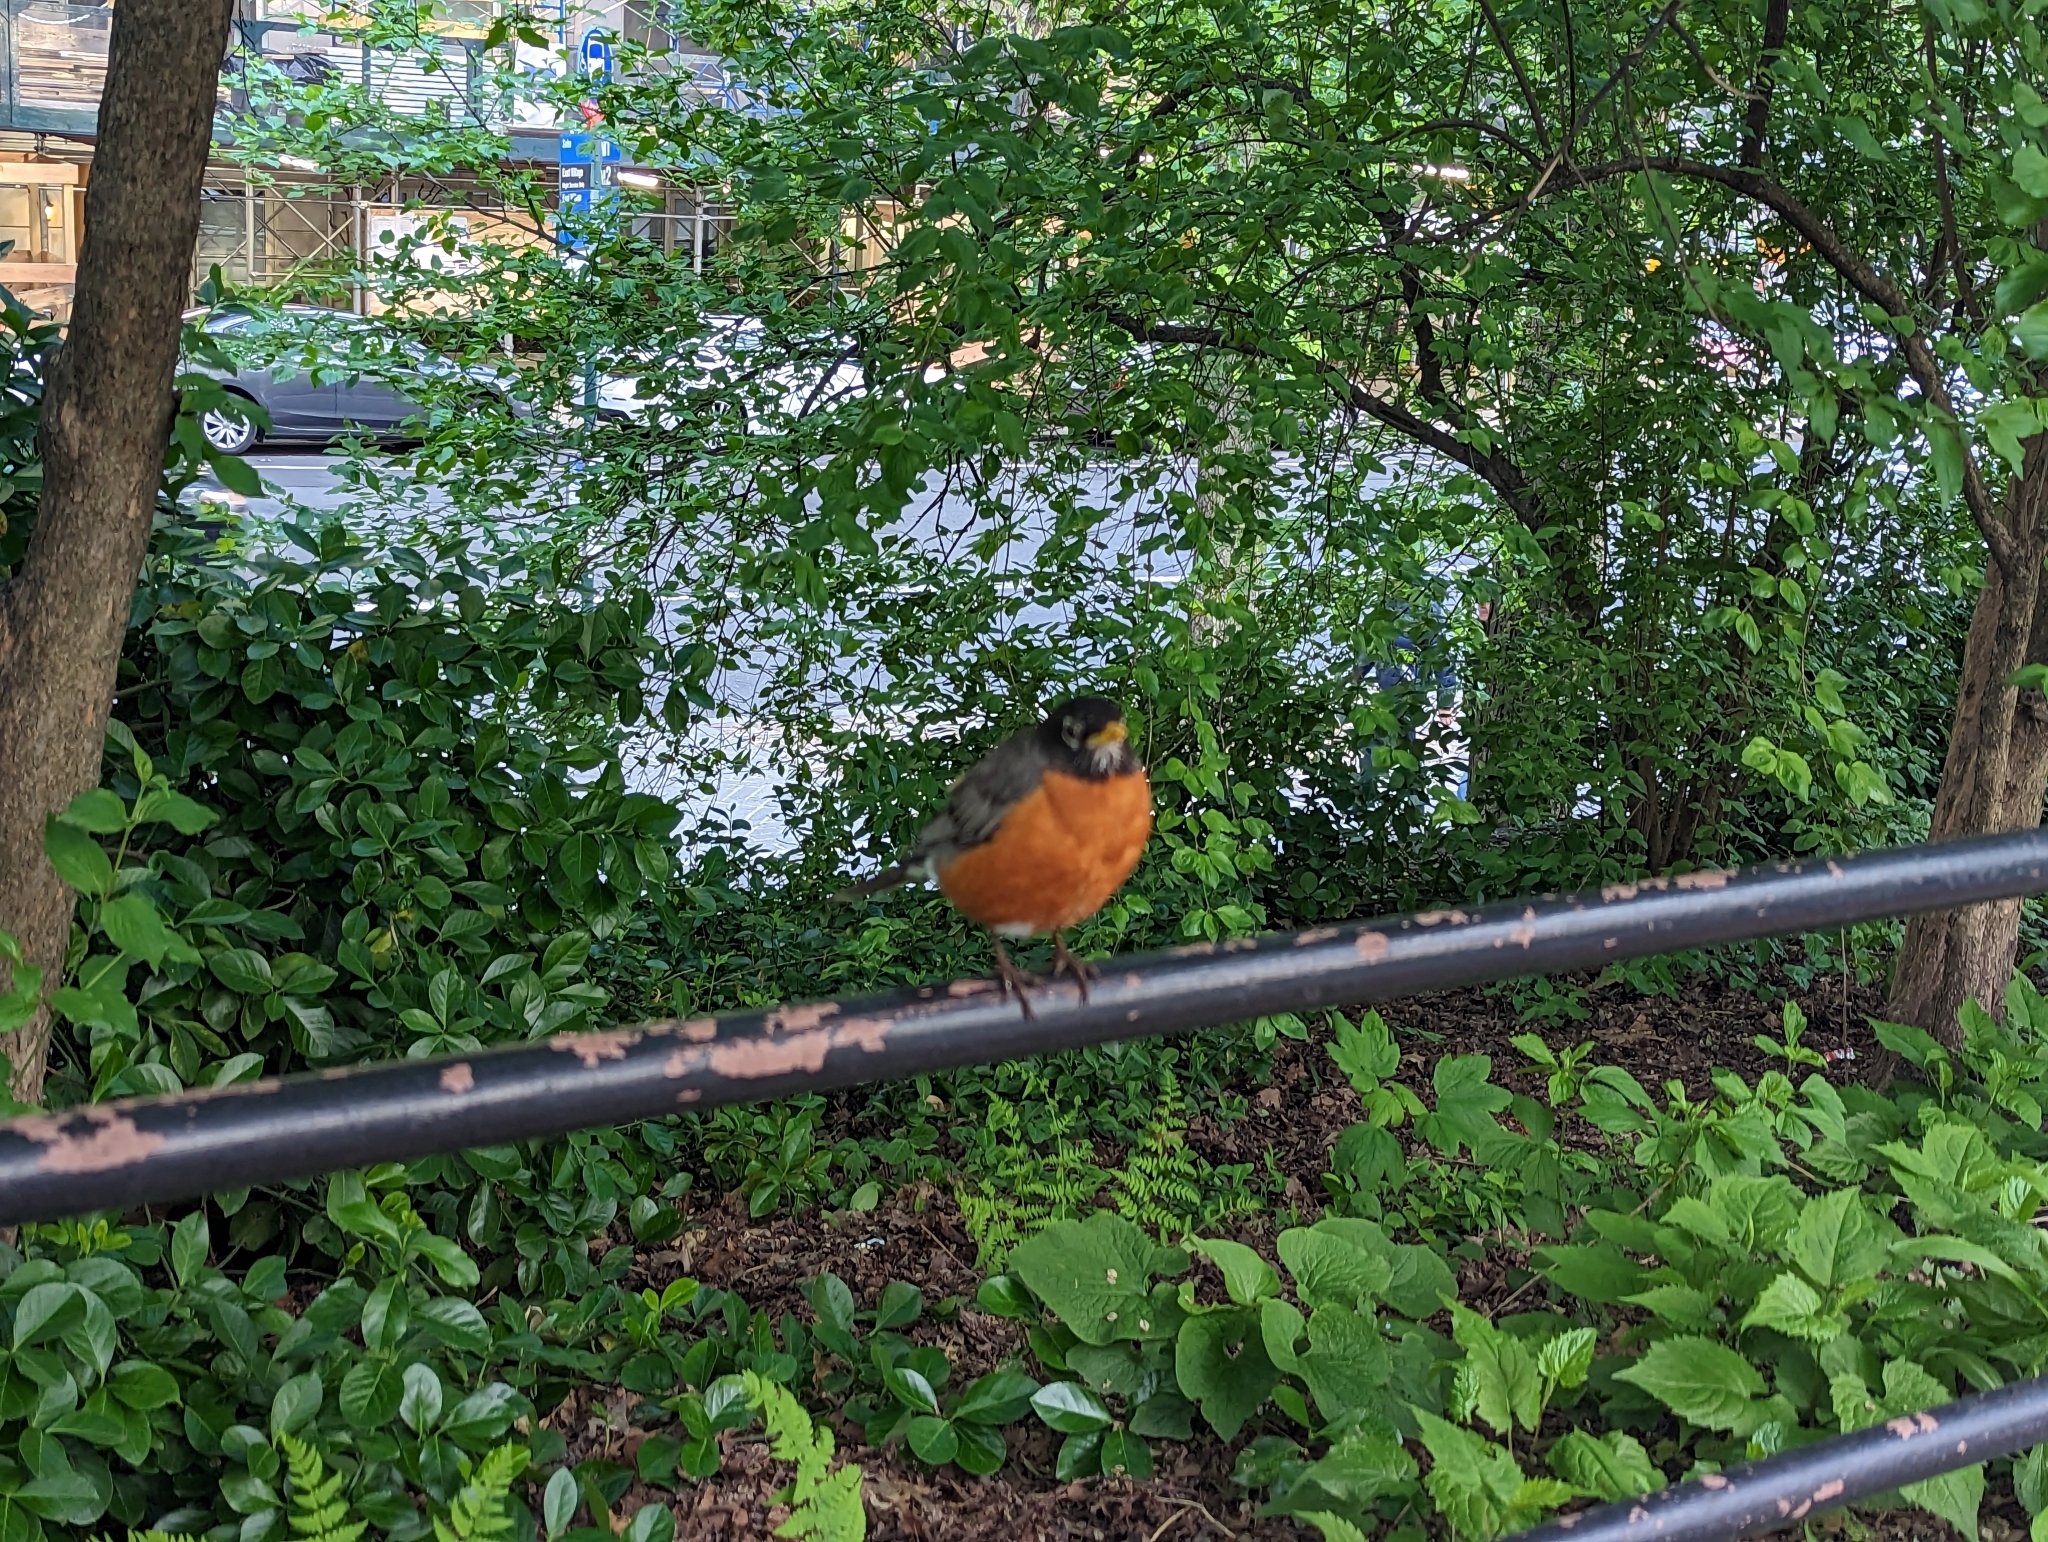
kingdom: Animalia
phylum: Chordata
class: Aves
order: Passeriformes
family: Turdidae
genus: Turdus
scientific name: Turdus migratorius
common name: American robin
